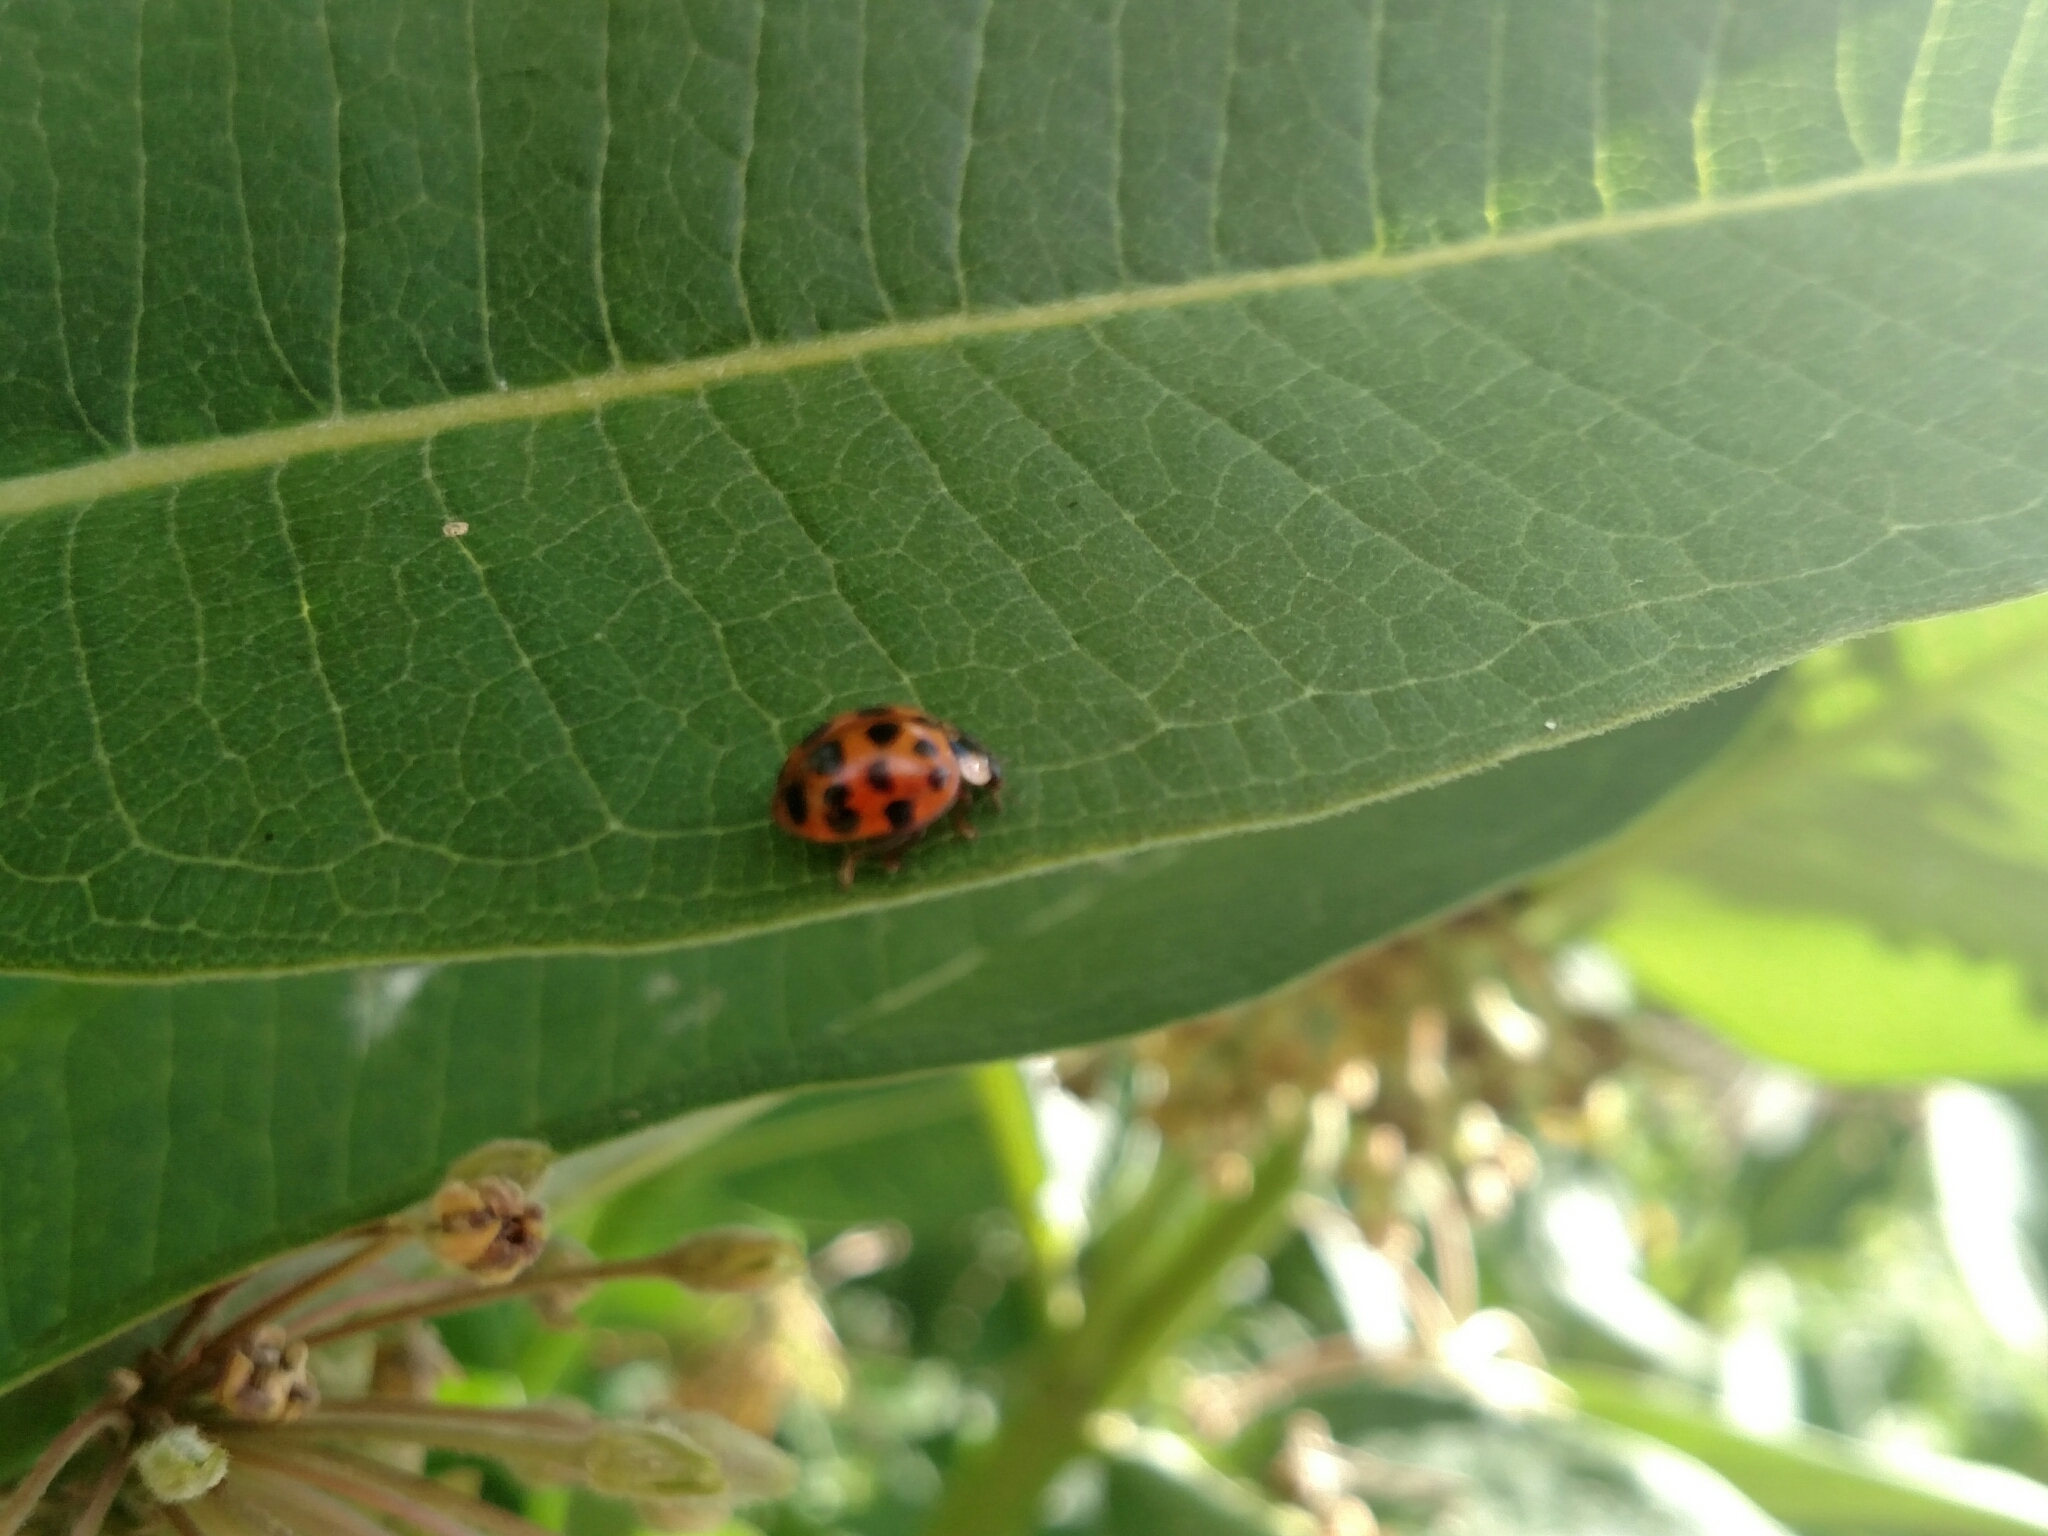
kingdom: Animalia
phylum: Arthropoda
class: Insecta
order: Coleoptera
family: Coccinellidae
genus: Harmonia
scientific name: Harmonia axyridis
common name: Harlequin ladybird
